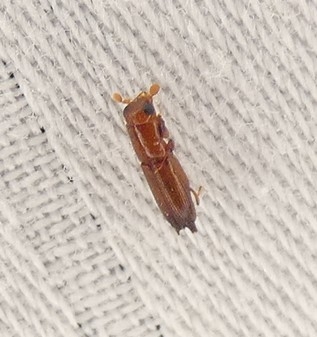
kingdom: Animalia
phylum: Arthropoda
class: Insecta
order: Coleoptera
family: Curculionidae
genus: Euplatypus
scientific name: Euplatypus compositus
